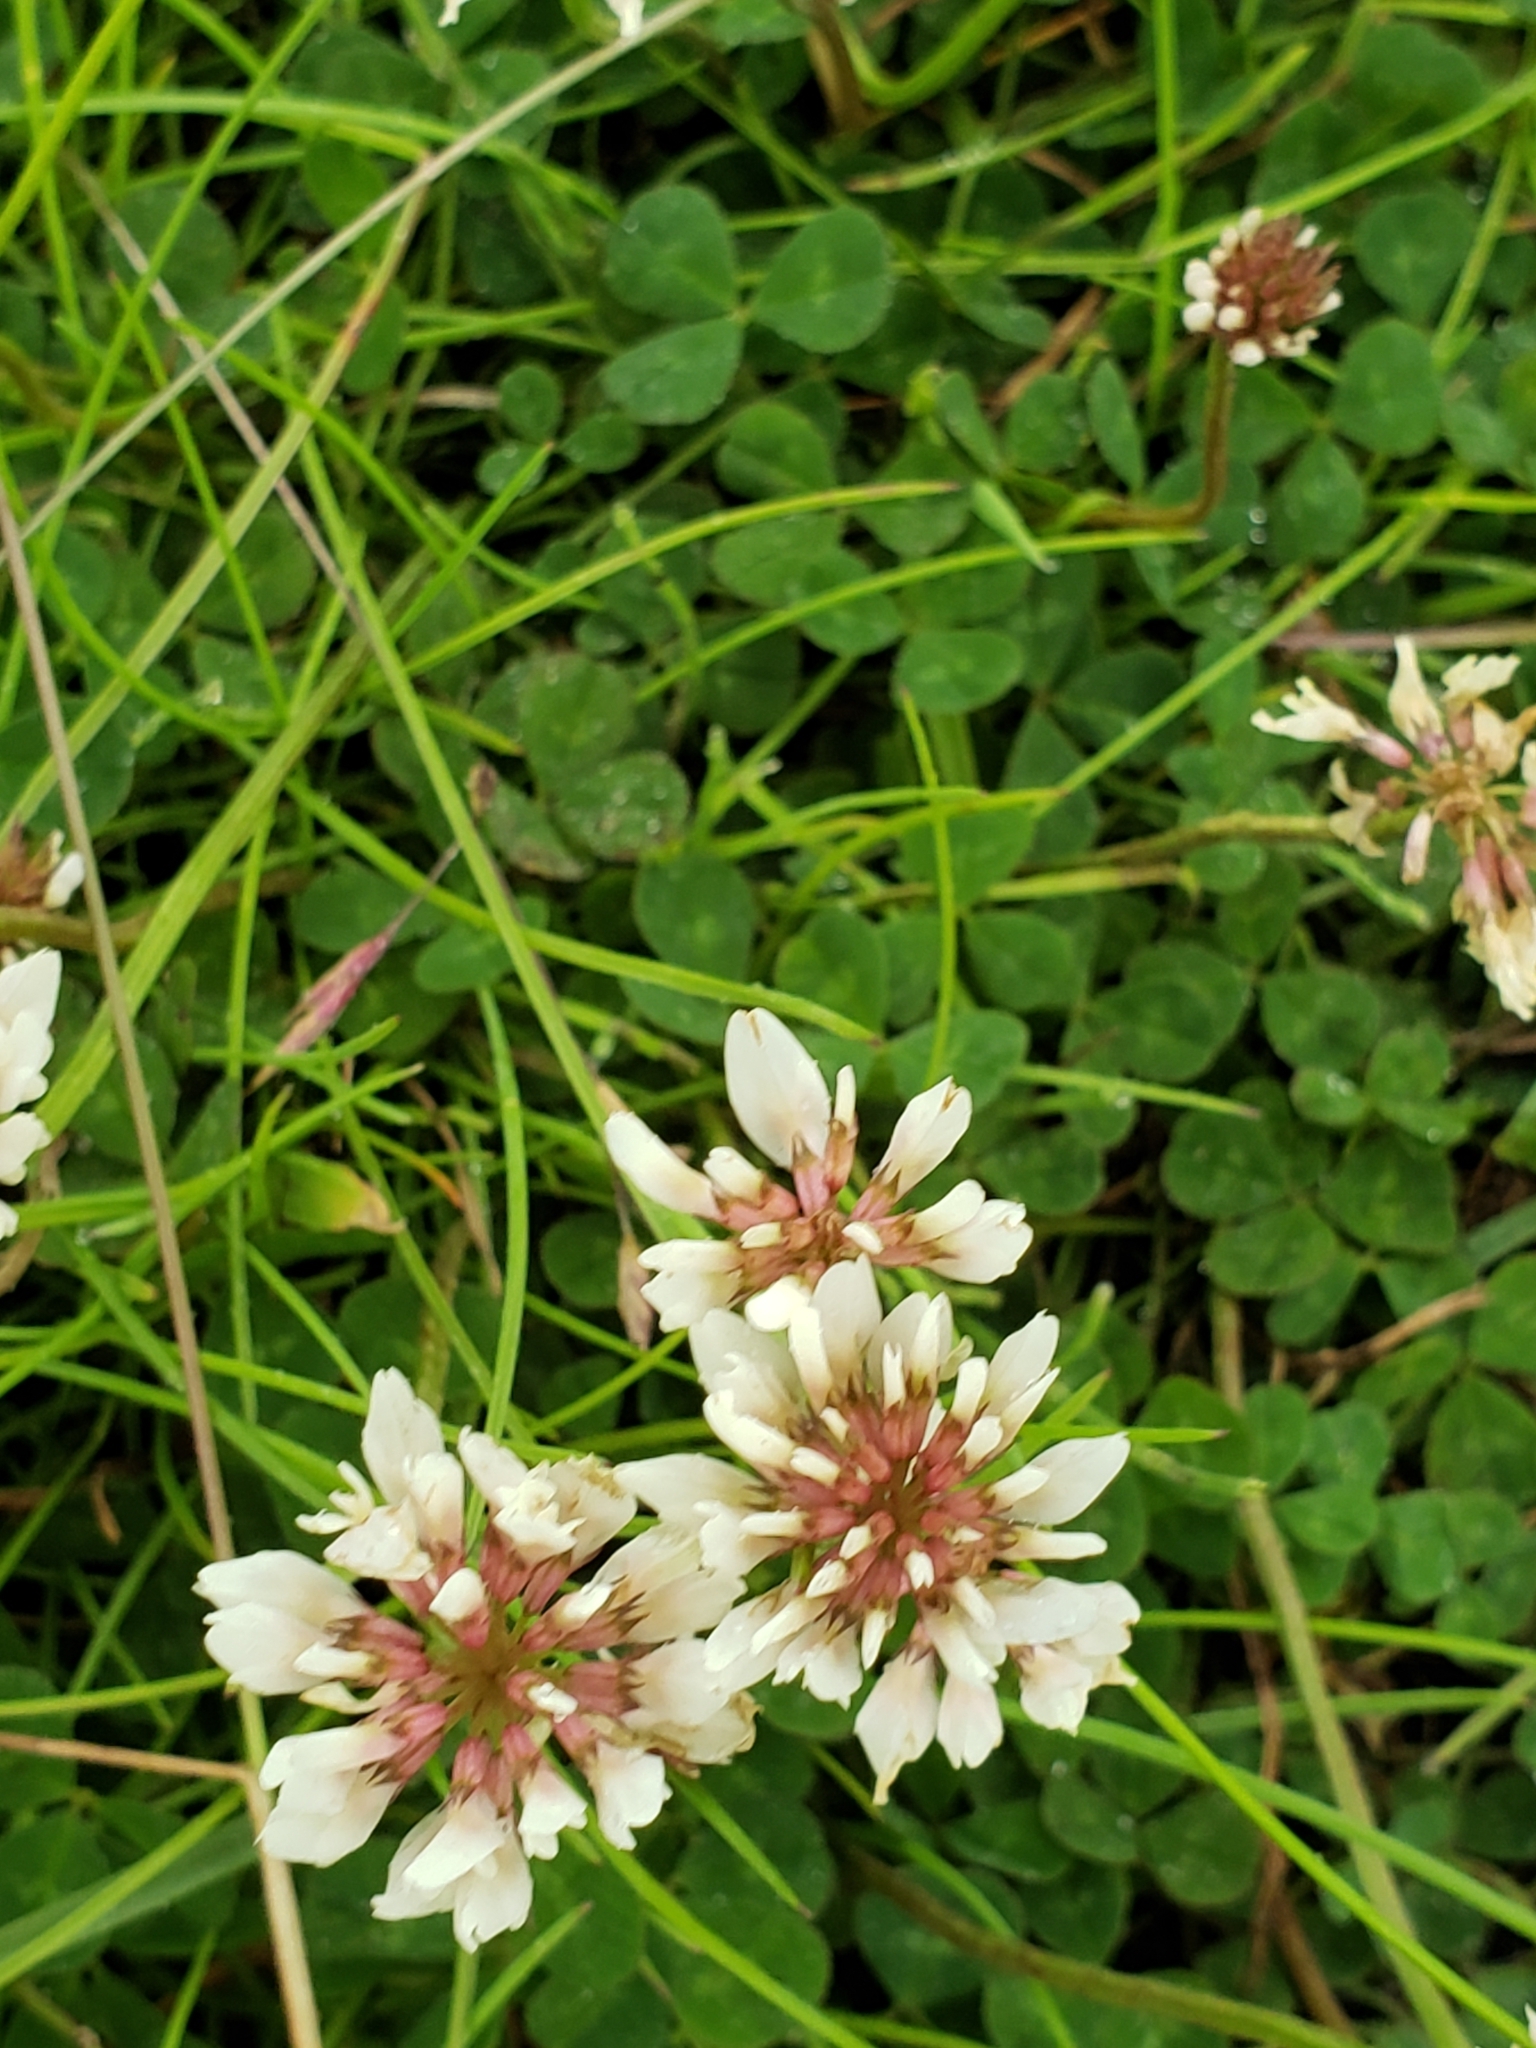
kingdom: Plantae
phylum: Tracheophyta
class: Magnoliopsida
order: Fabales
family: Fabaceae
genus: Trifolium
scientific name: Trifolium repens
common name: White clover
